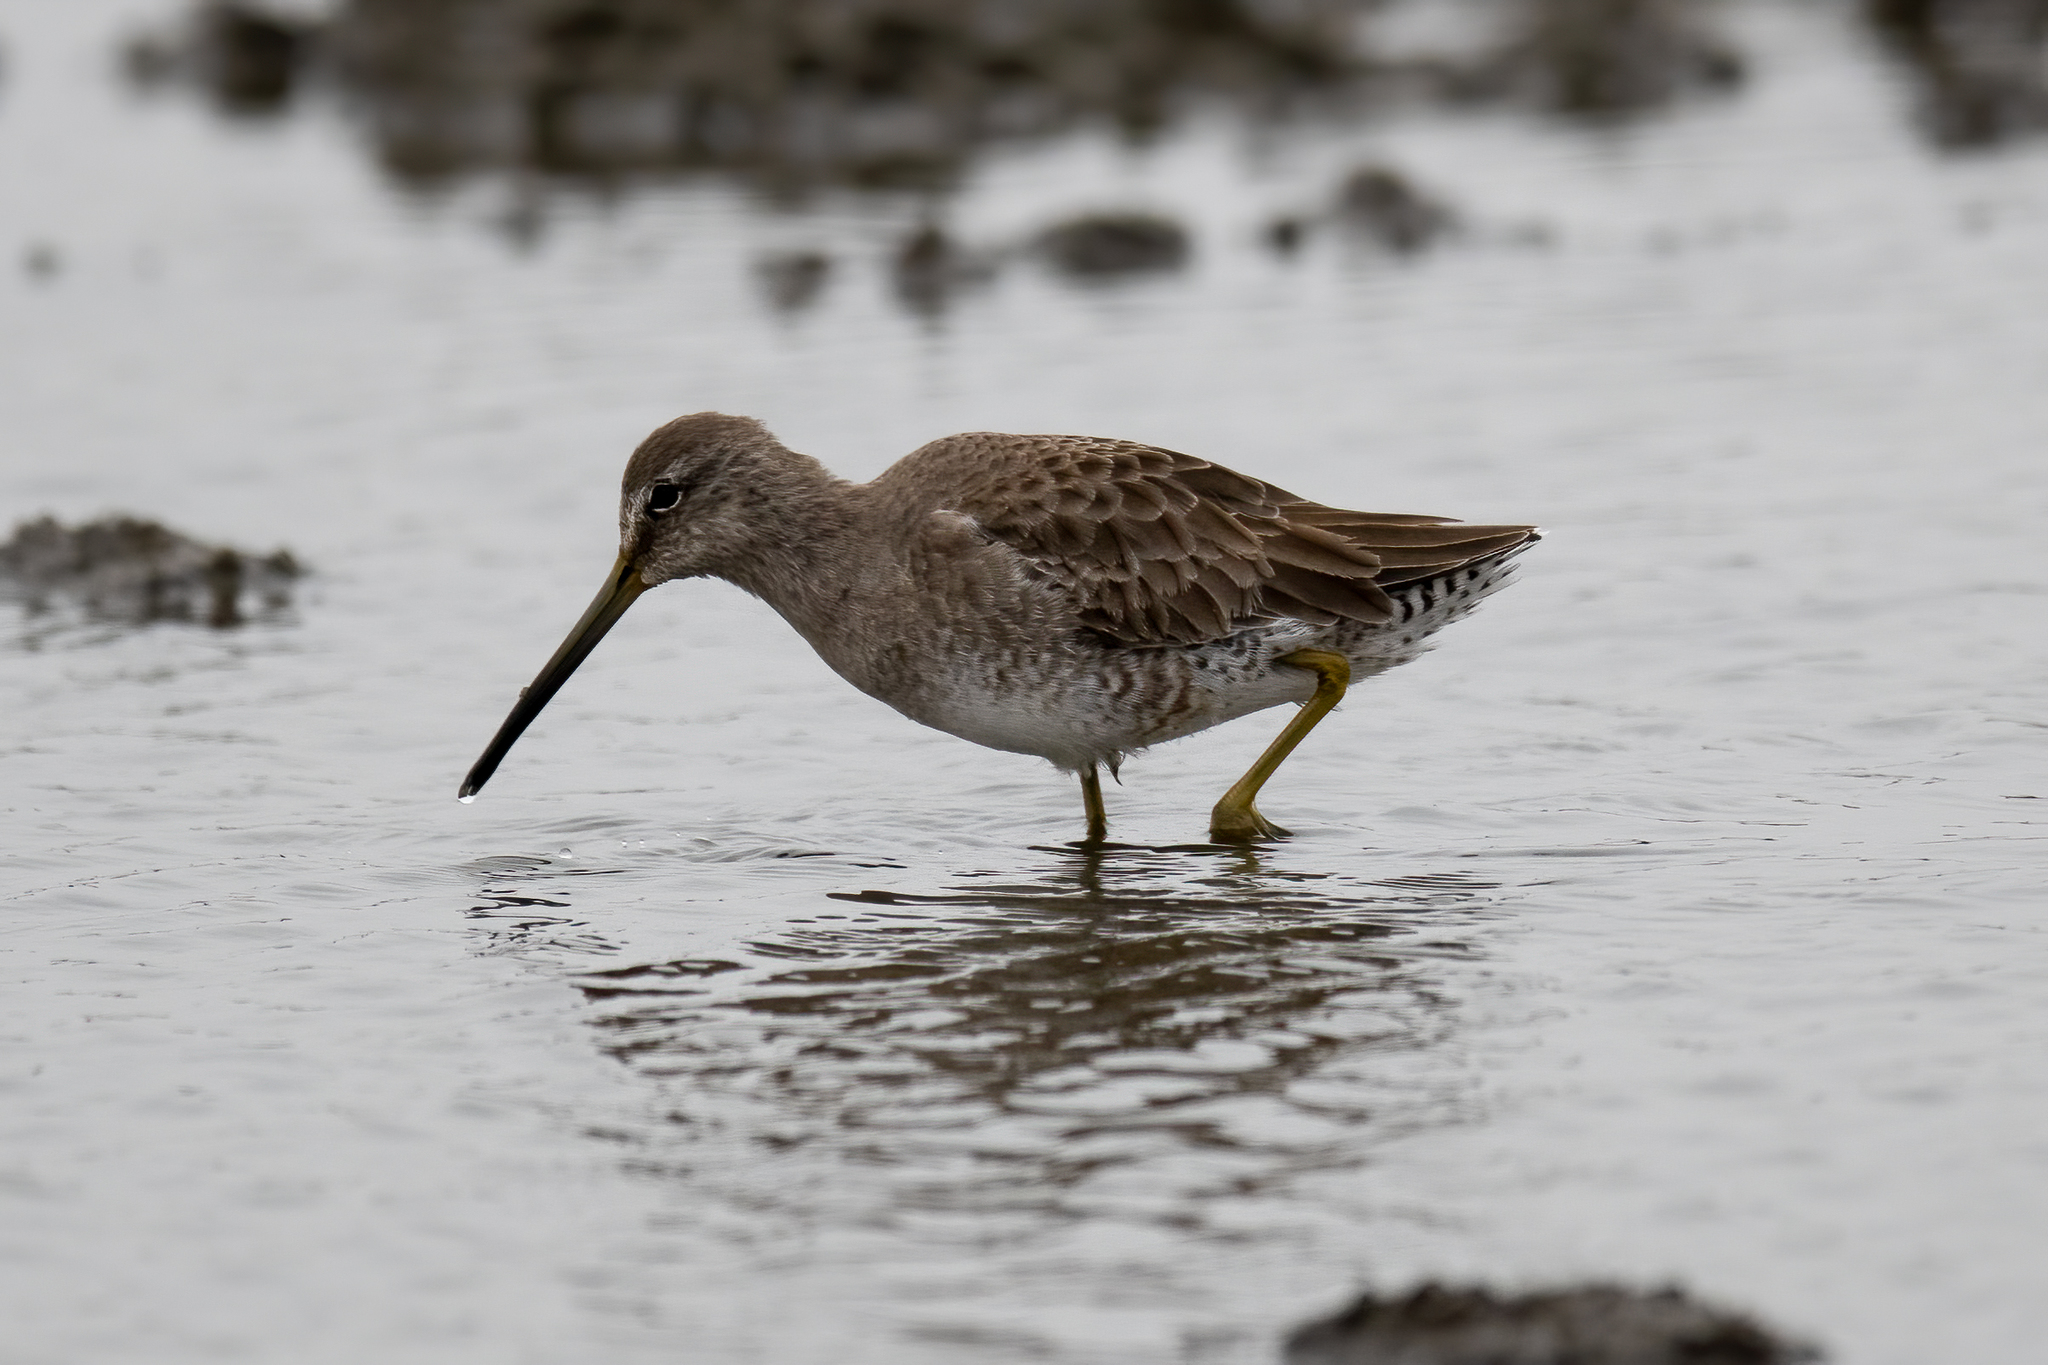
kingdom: Animalia
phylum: Chordata
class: Aves
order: Charadriiformes
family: Scolopacidae
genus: Limnodromus
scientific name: Limnodromus scolopaceus
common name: Long-billed dowitcher
